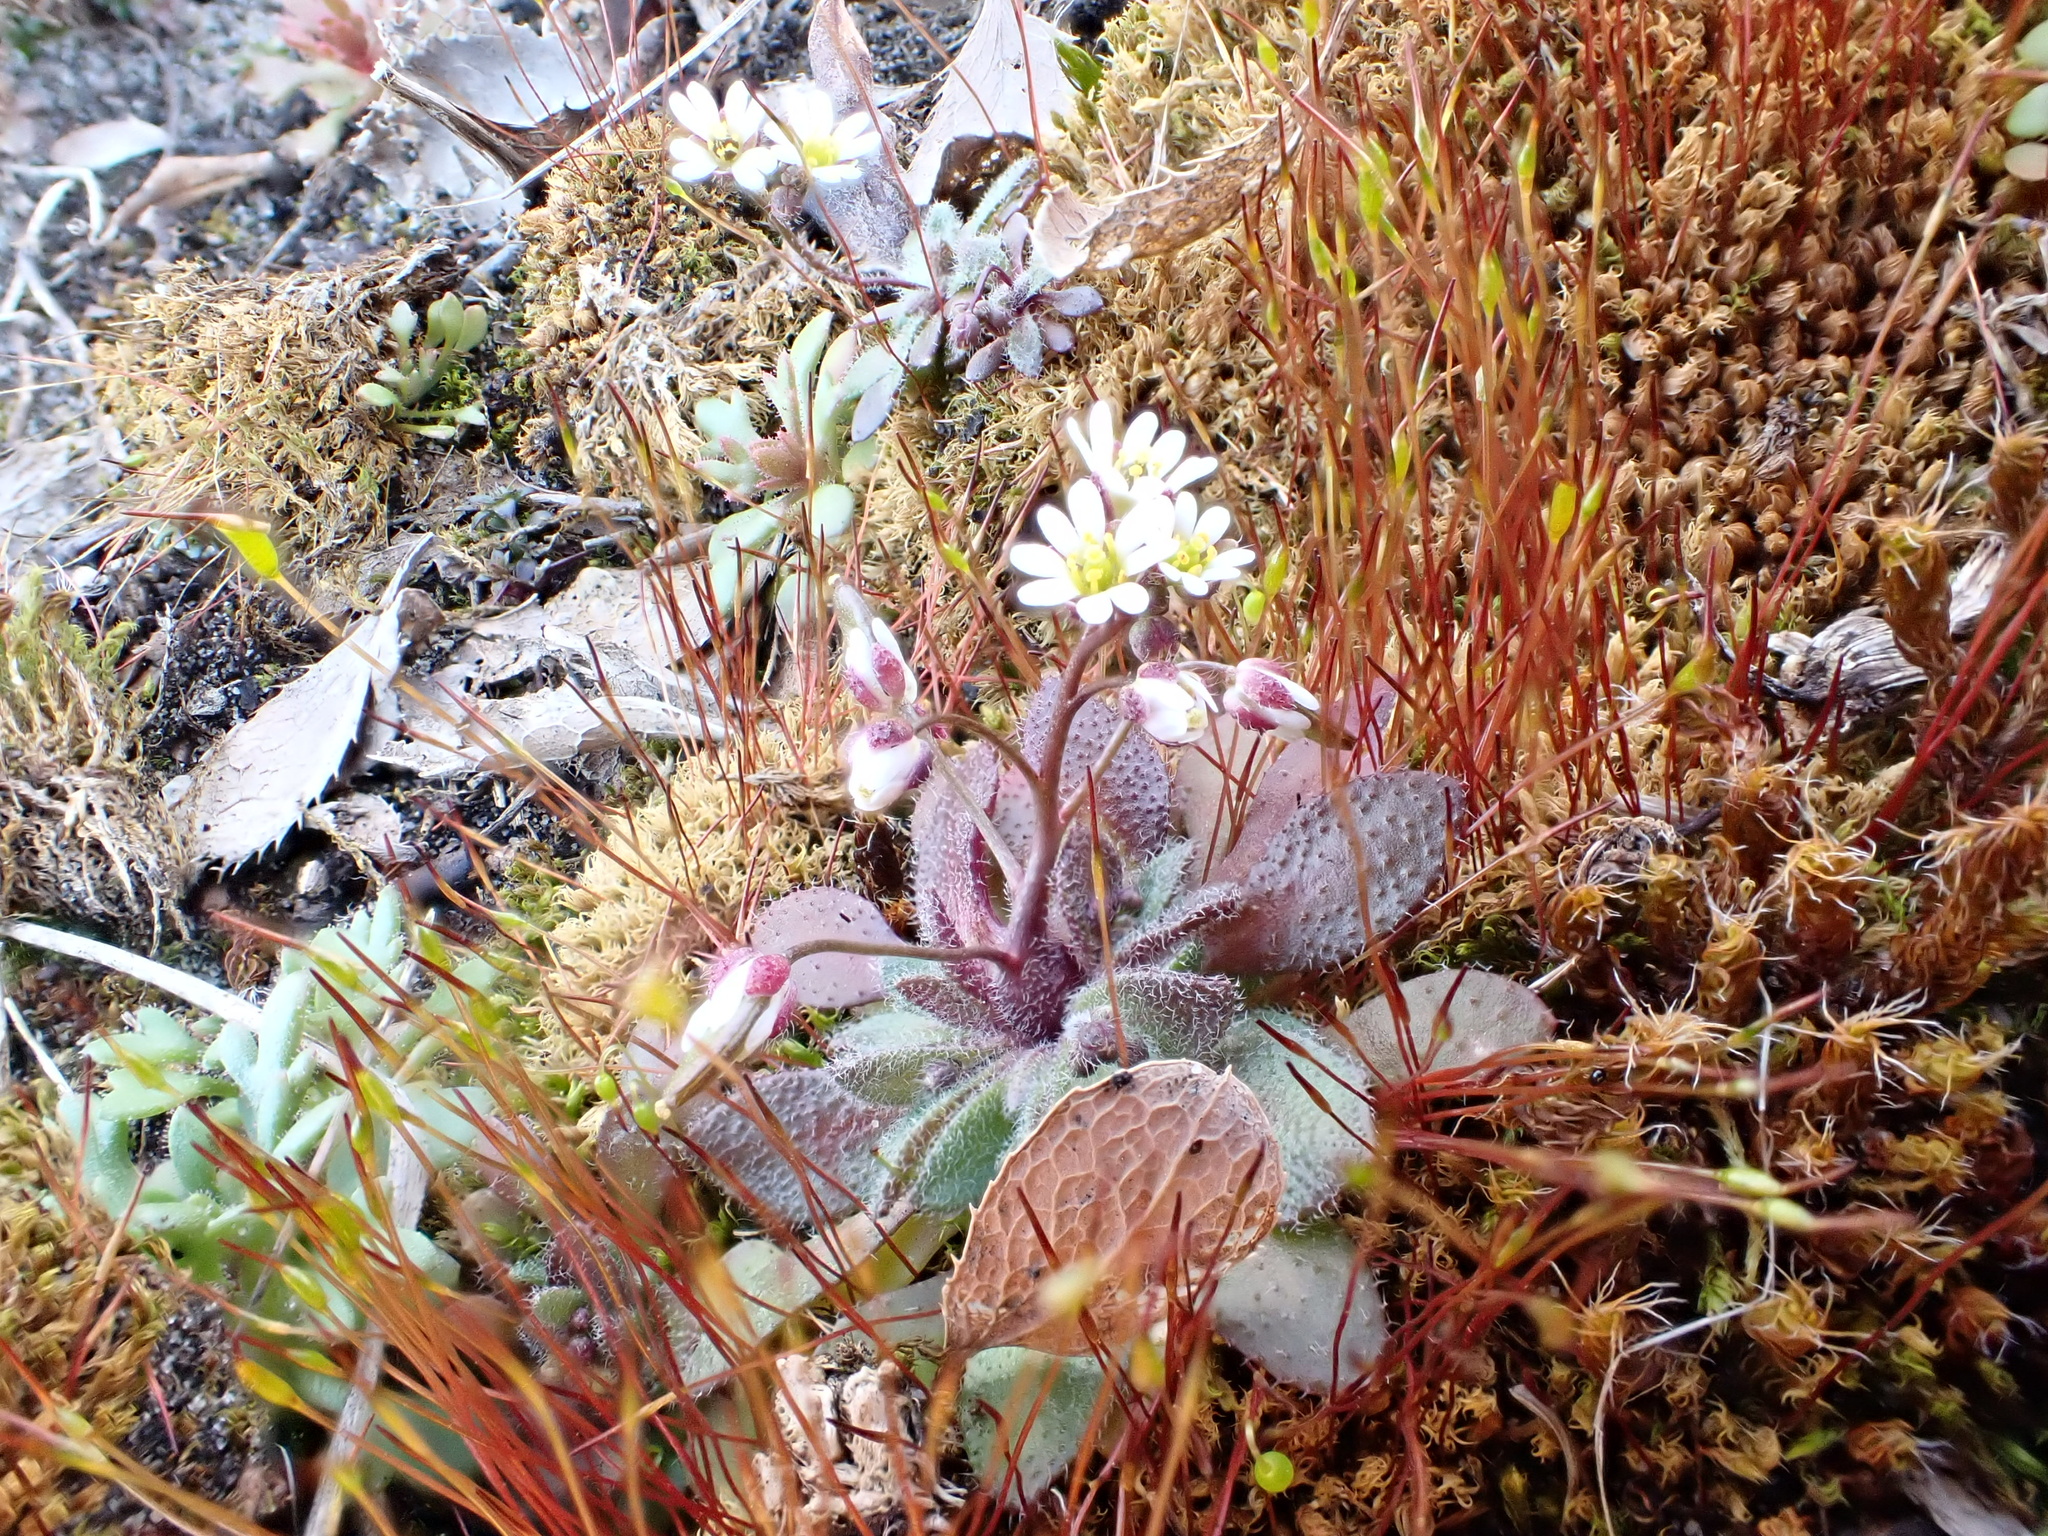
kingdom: Plantae
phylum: Tracheophyta
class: Magnoliopsida
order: Brassicales
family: Brassicaceae
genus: Draba
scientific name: Draba verna
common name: Spring draba
